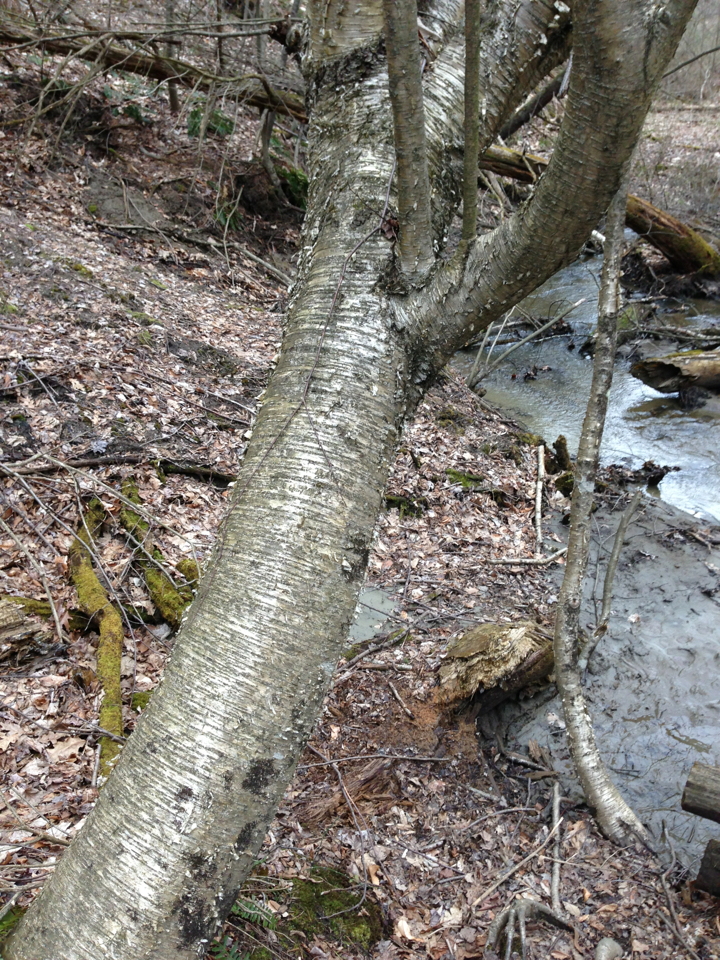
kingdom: Plantae
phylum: Tracheophyta
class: Magnoliopsida
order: Fagales
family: Betulaceae
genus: Betula
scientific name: Betula alleghaniensis
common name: Yellow birch
